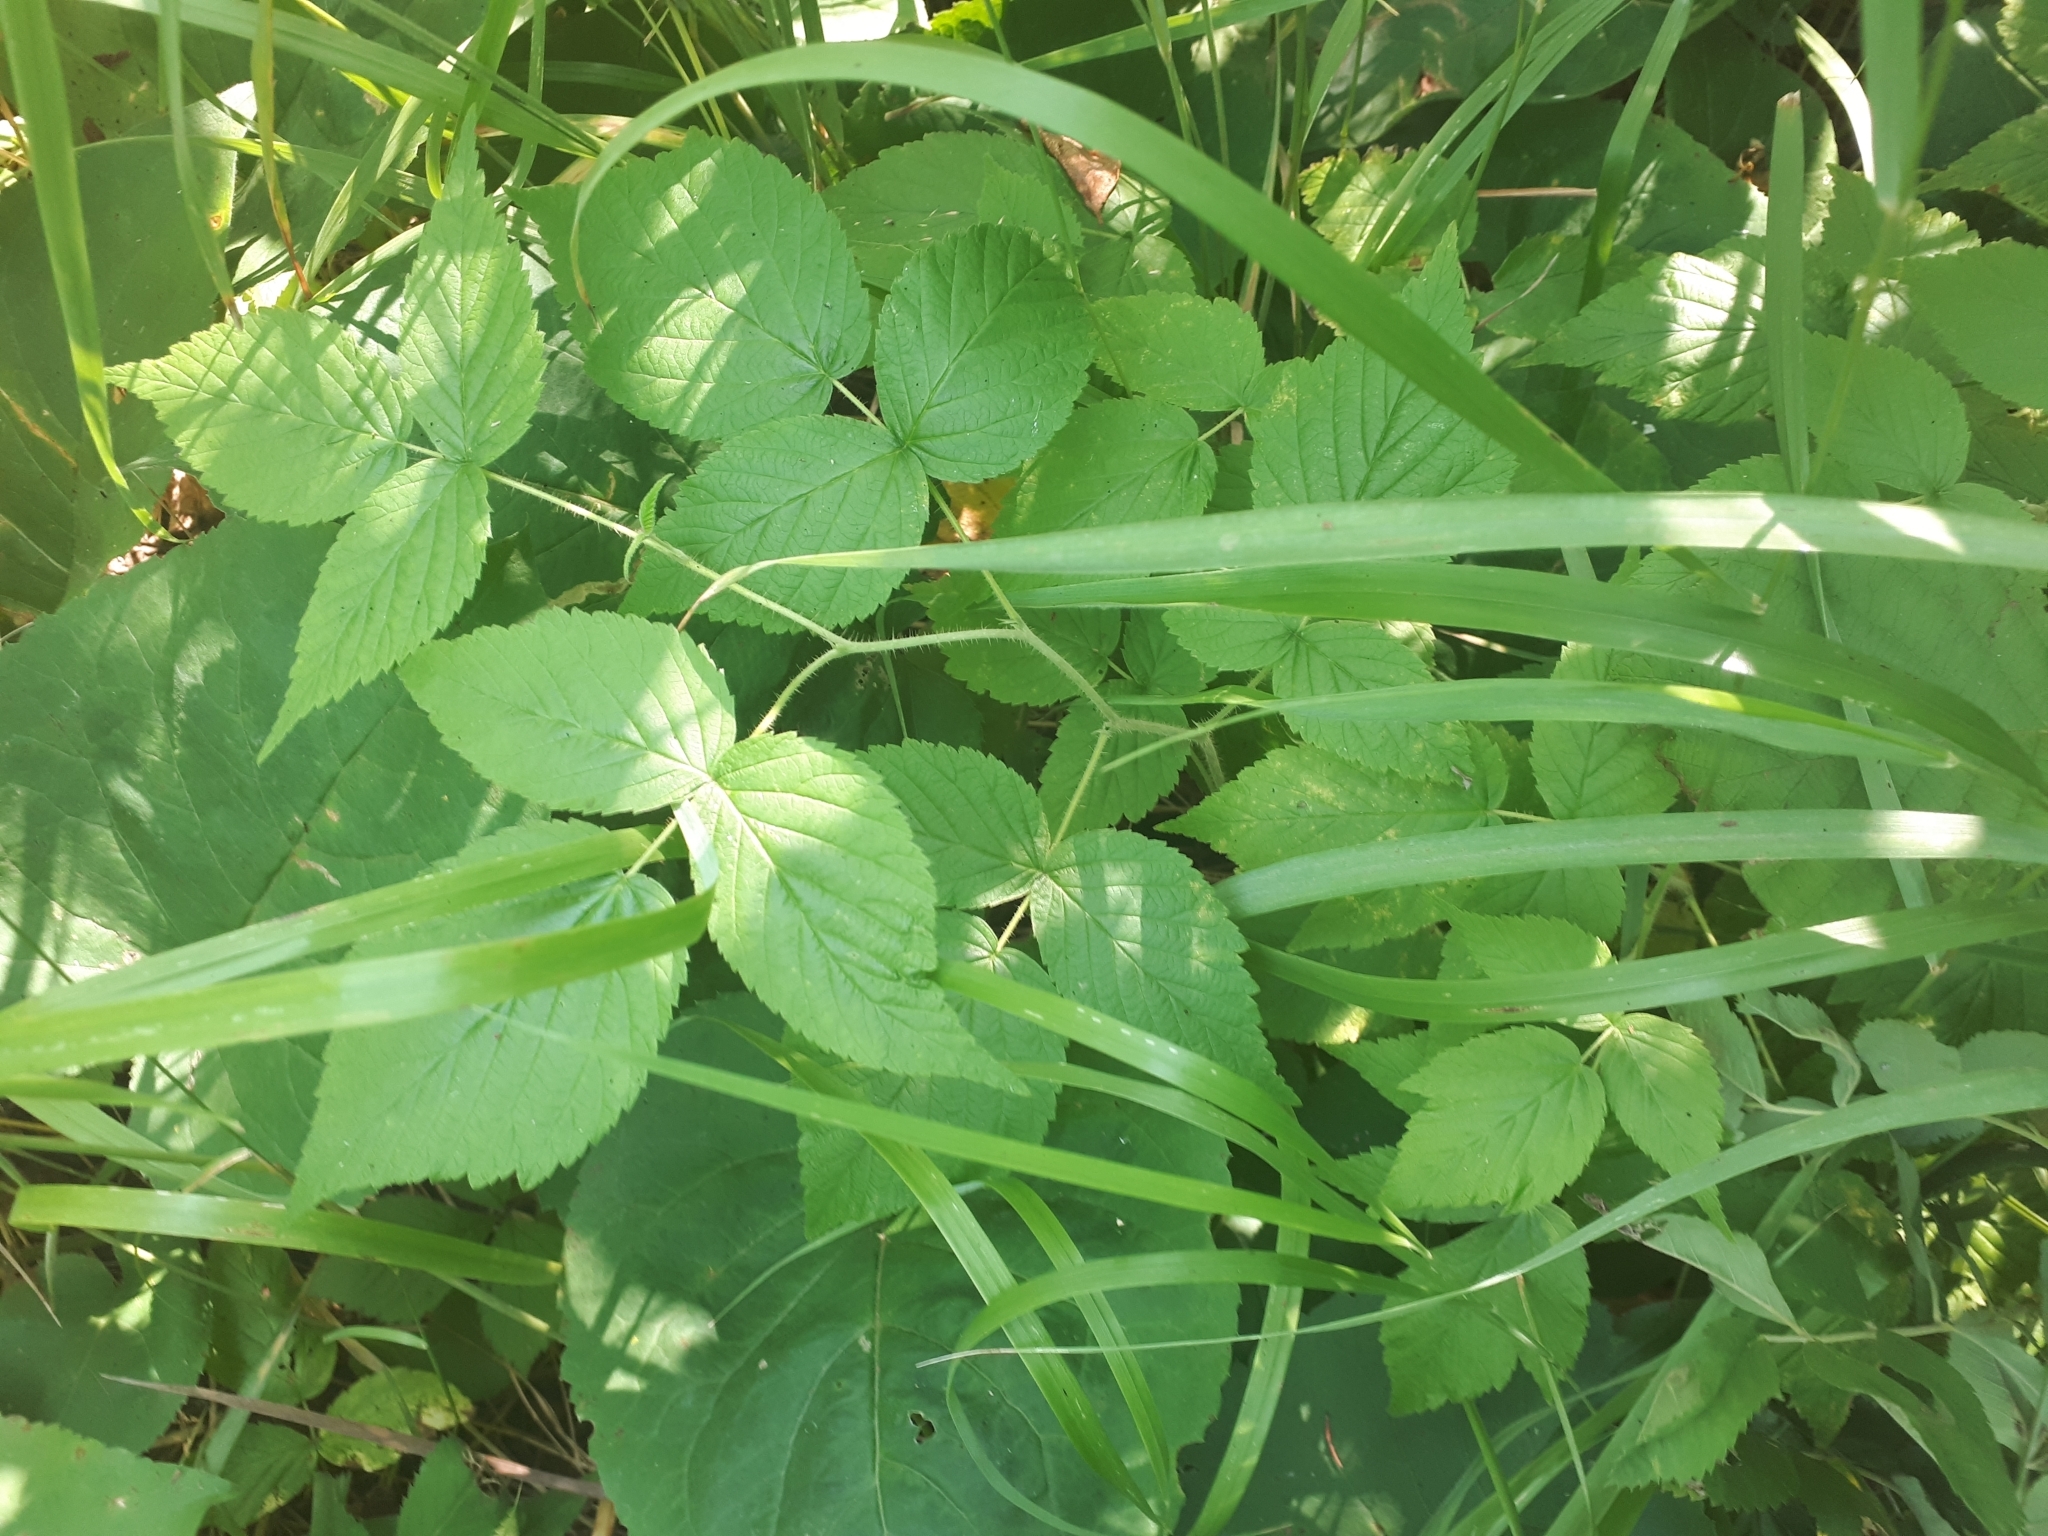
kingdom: Plantae
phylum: Tracheophyta
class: Magnoliopsida
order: Rosales
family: Rosaceae
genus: Rubus
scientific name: Rubus idaeus
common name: Raspberry
